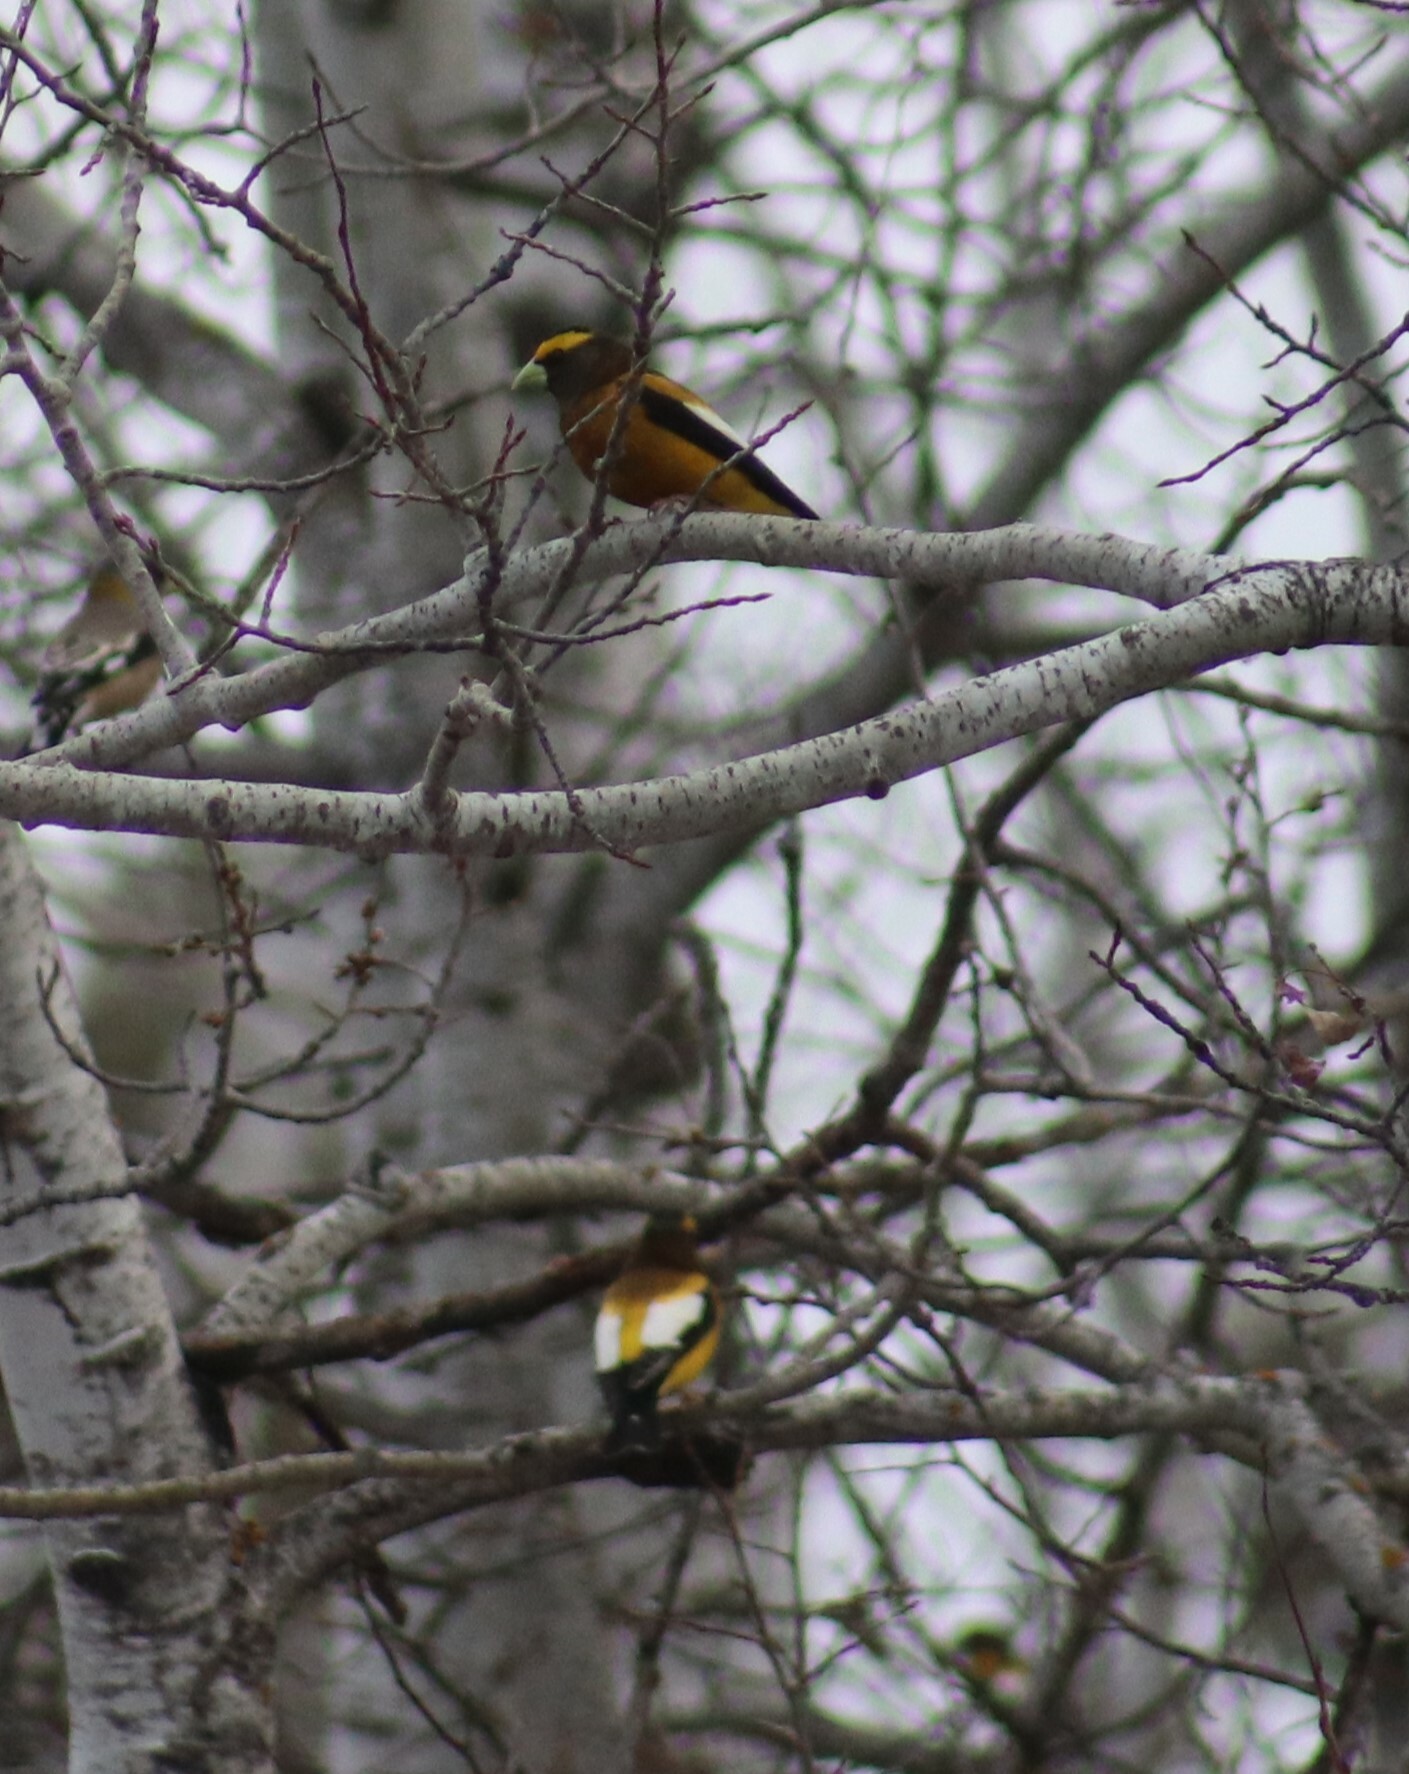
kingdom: Animalia
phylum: Chordata
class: Aves
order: Passeriformes
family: Fringillidae
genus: Hesperiphona
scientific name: Hesperiphona vespertina
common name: Evening grosbeak
